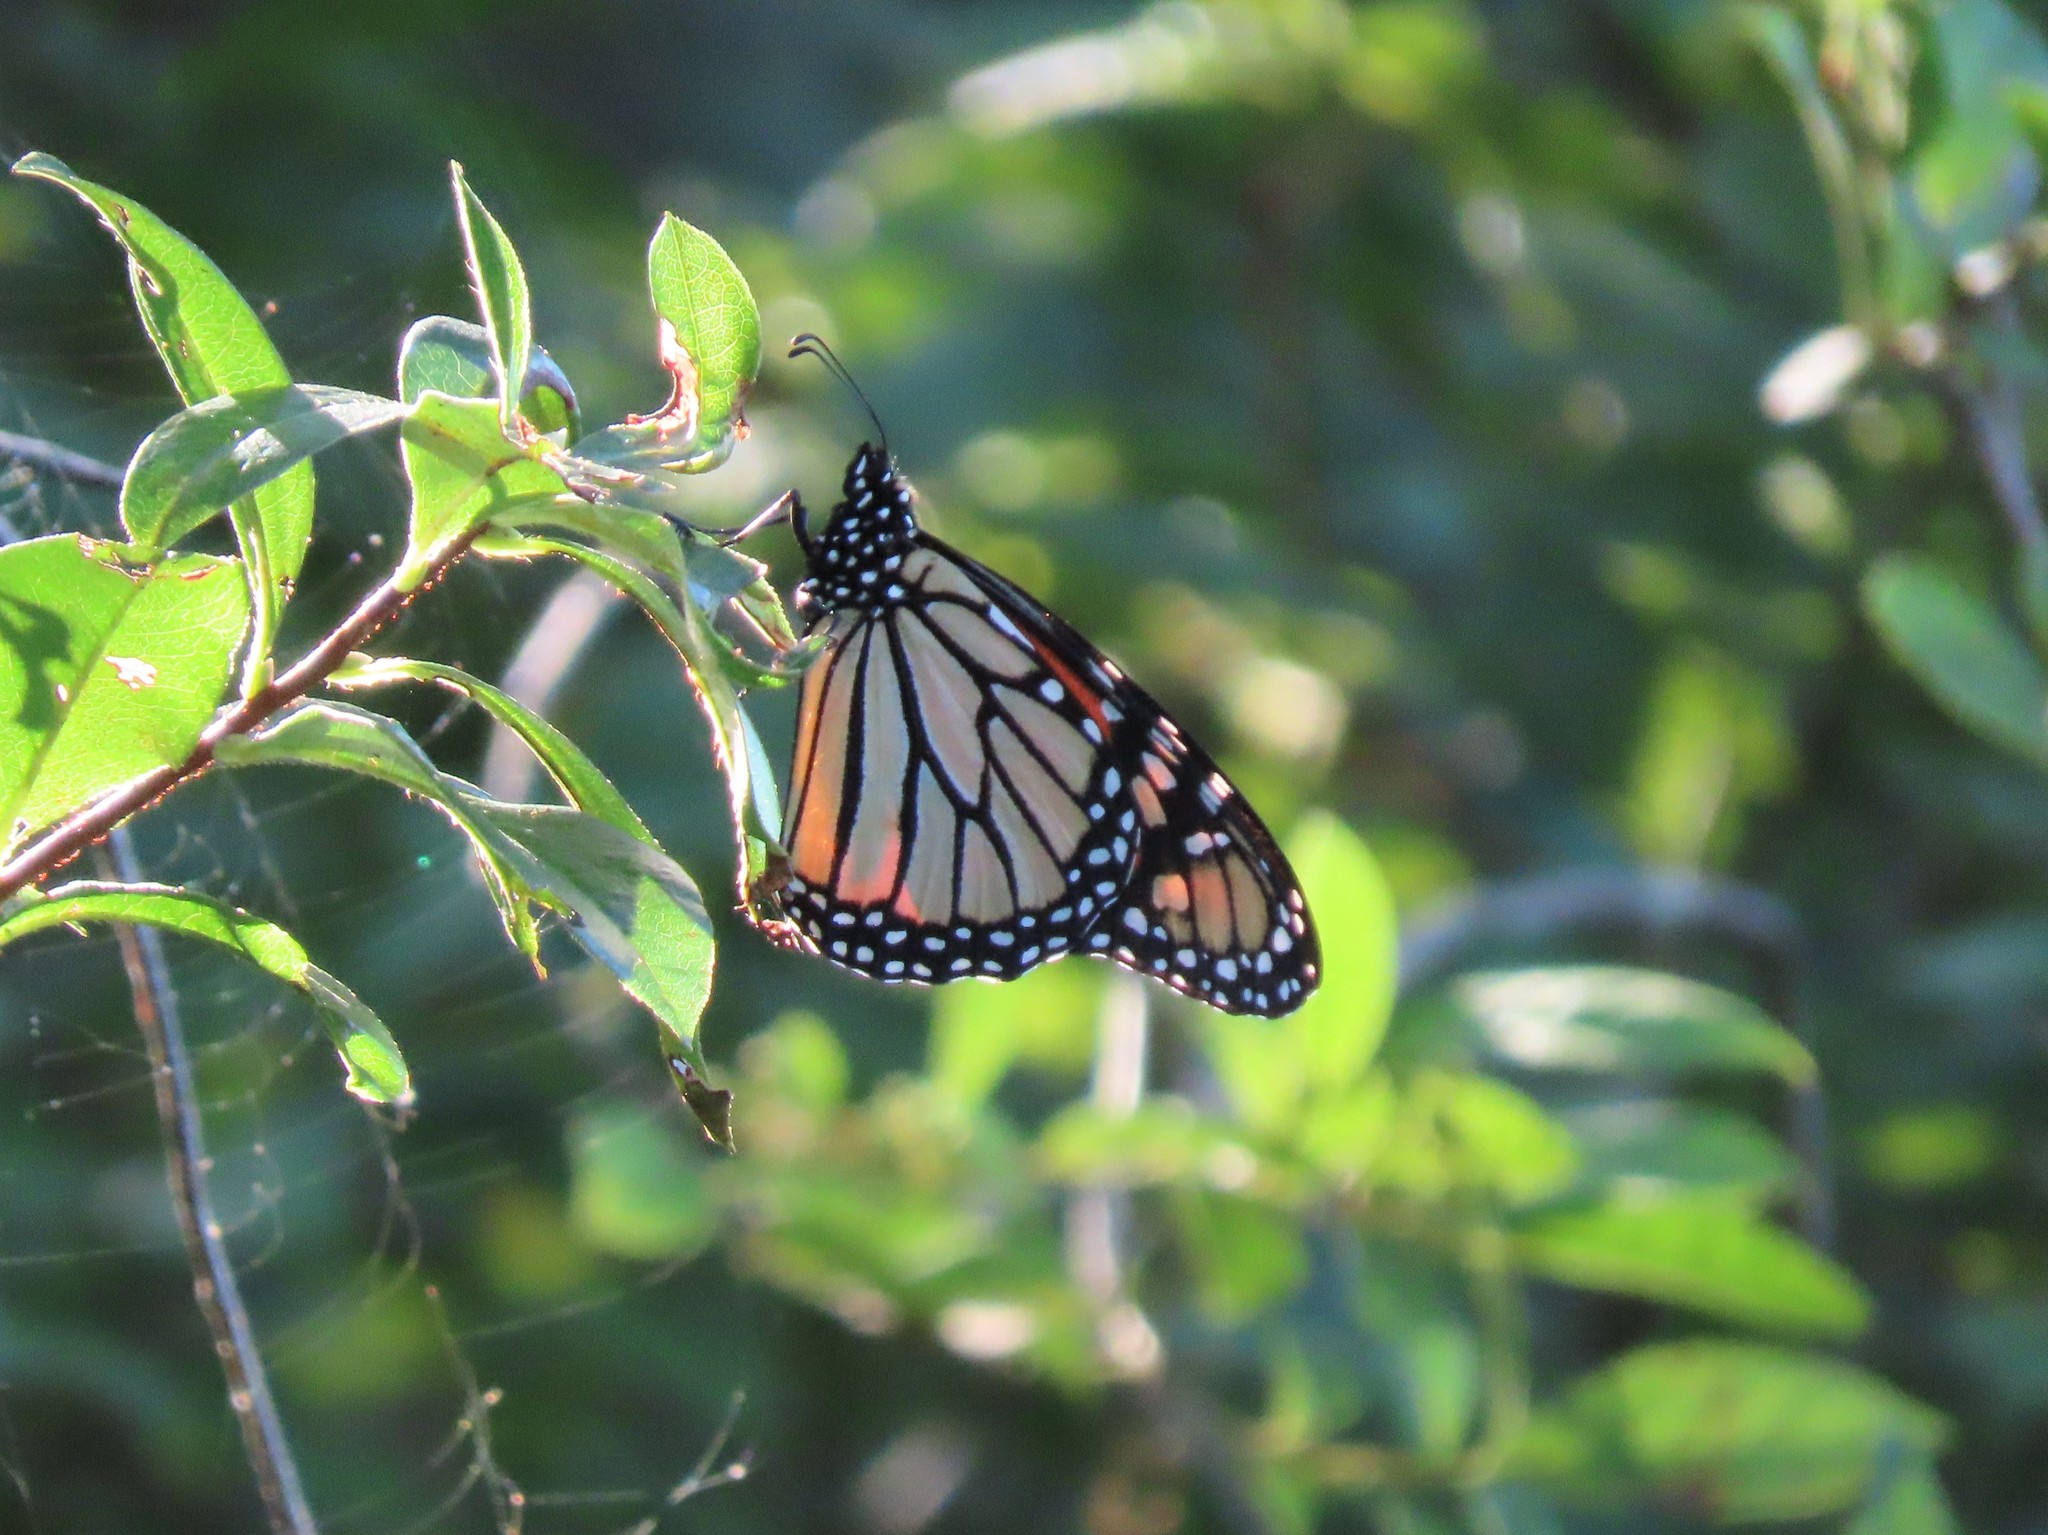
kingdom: Animalia
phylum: Arthropoda
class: Insecta
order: Lepidoptera
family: Nymphalidae
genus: Danaus
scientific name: Danaus plexippus
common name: Monarch
